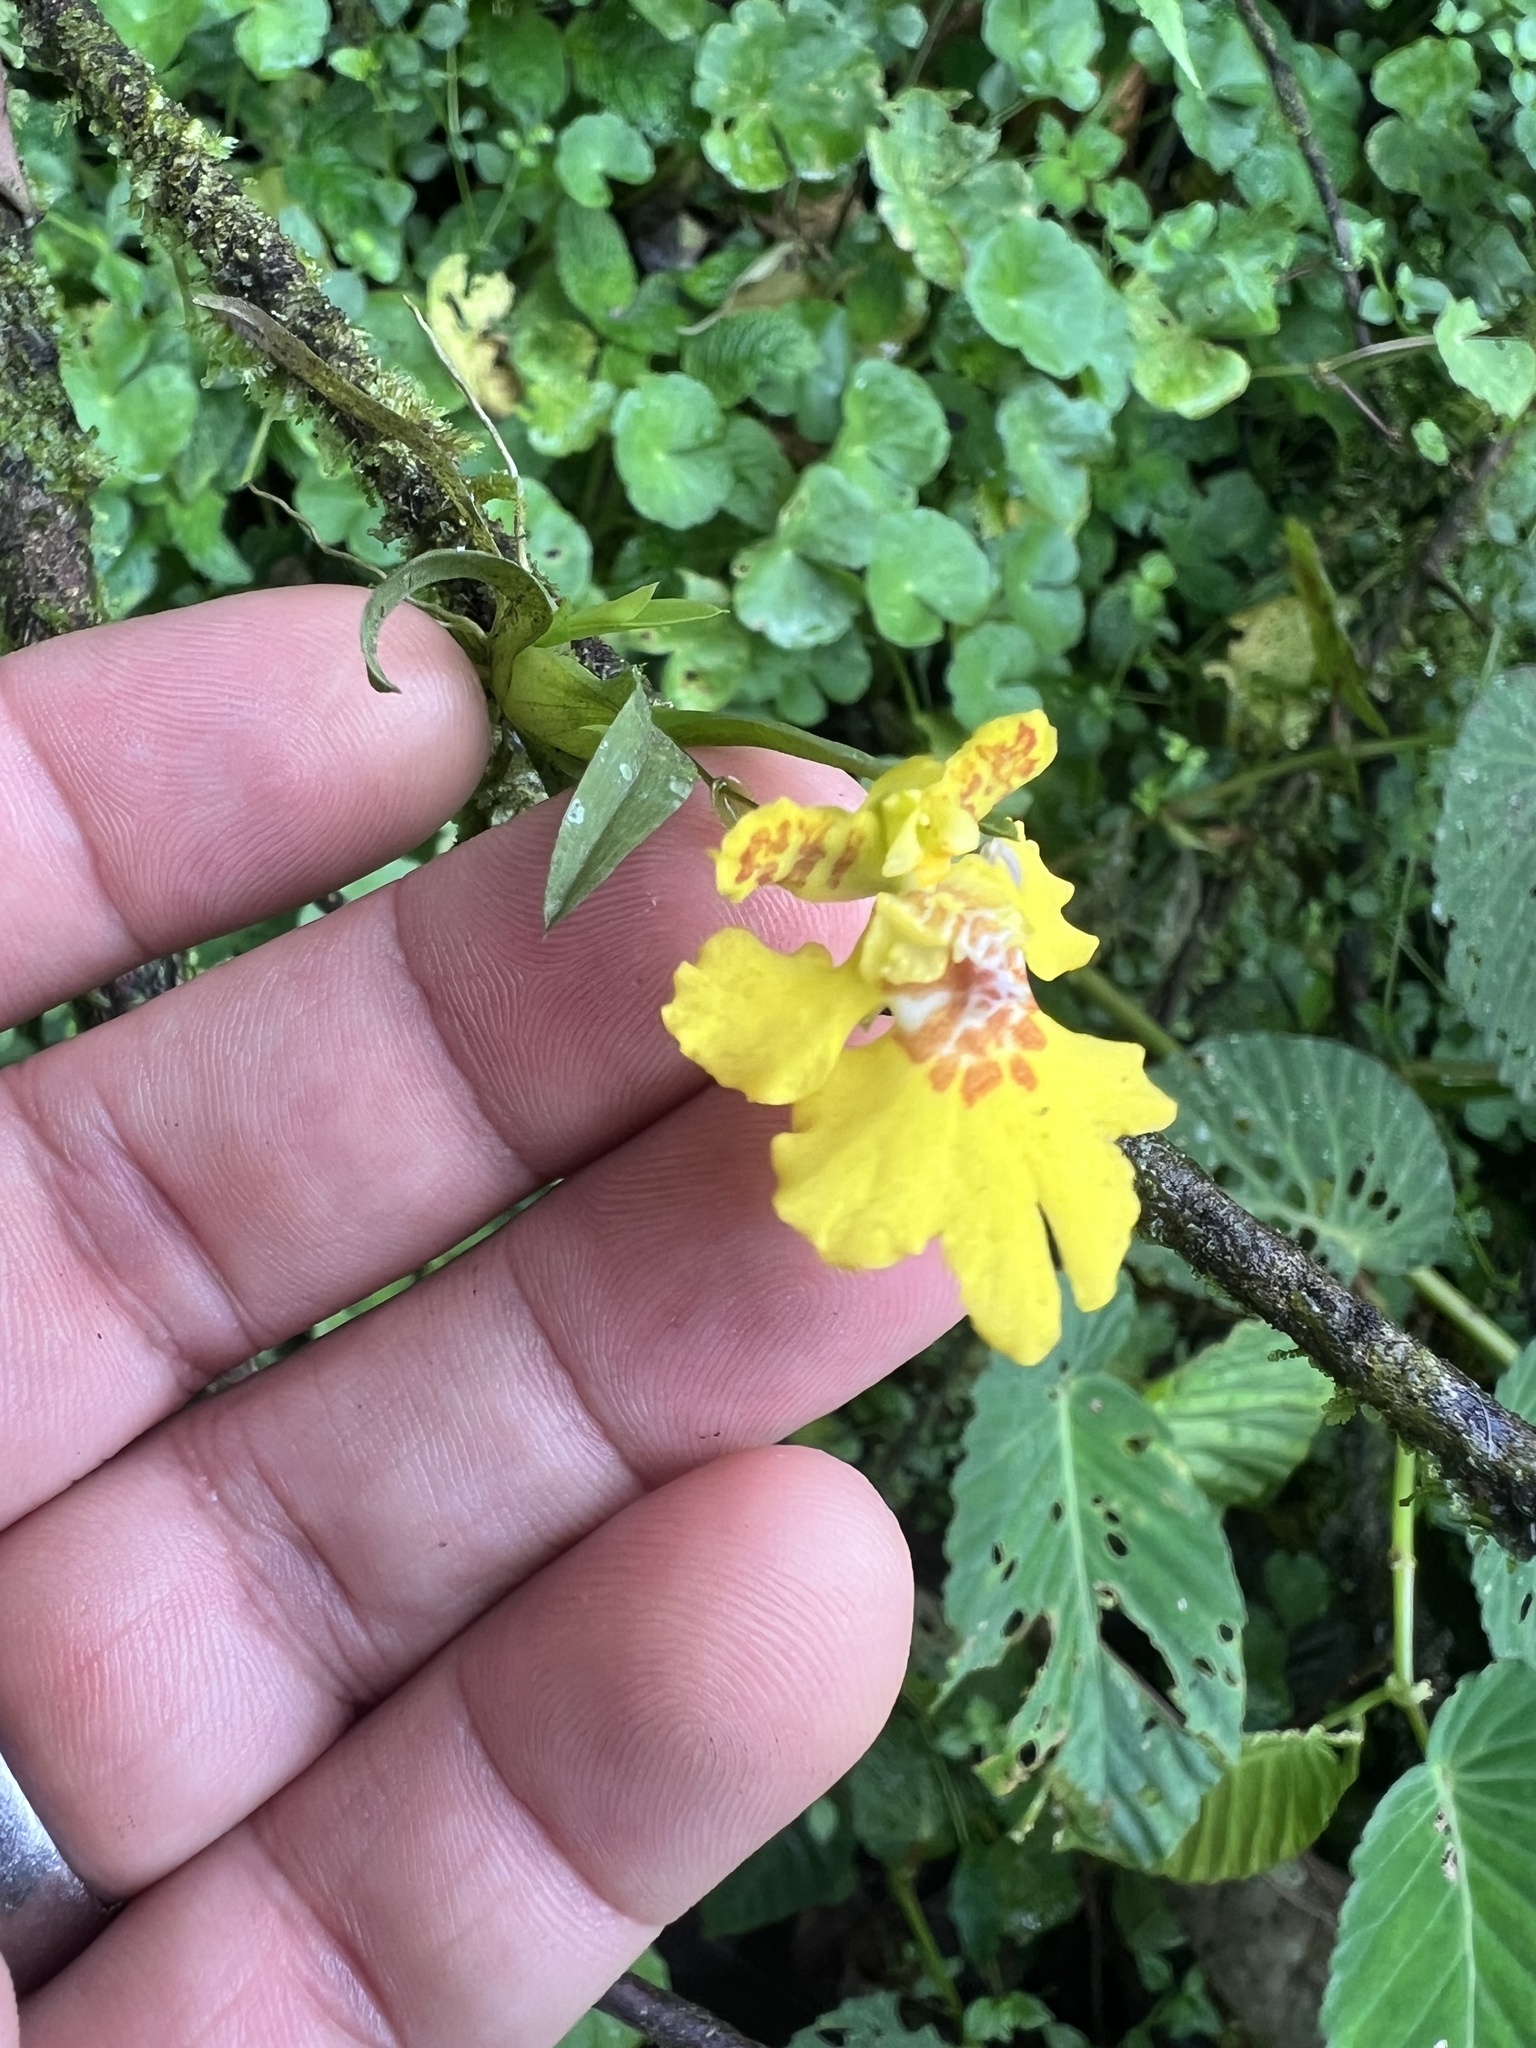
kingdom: Plantae
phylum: Tracheophyta
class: Liliopsida
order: Asparagales
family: Orchidaceae
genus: Erycina
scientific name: Erycina crista-galli
